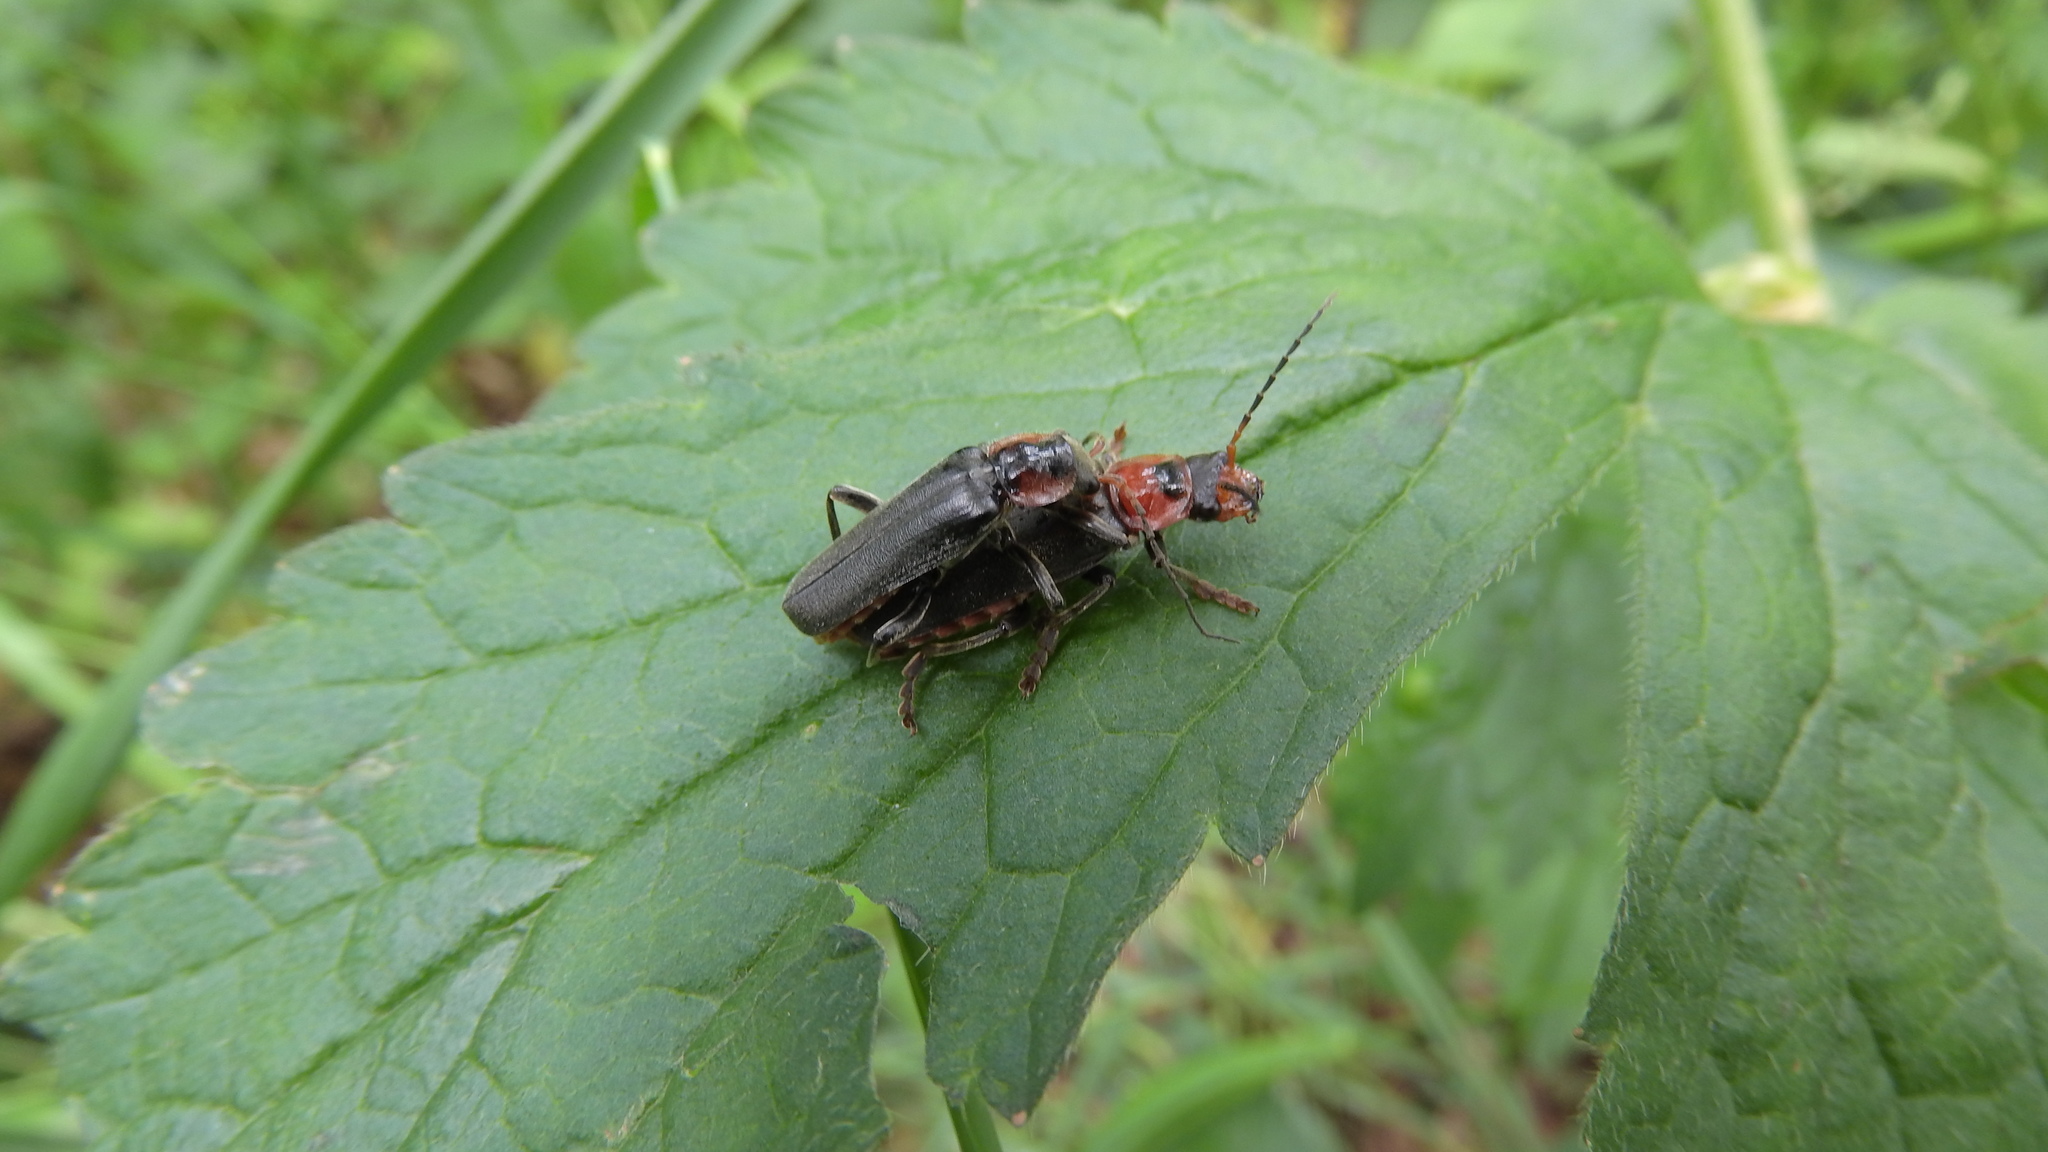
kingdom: Animalia
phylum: Arthropoda
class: Insecta
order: Coleoptera
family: Cantharidae
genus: Cantharis
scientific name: Cantharis fusca
